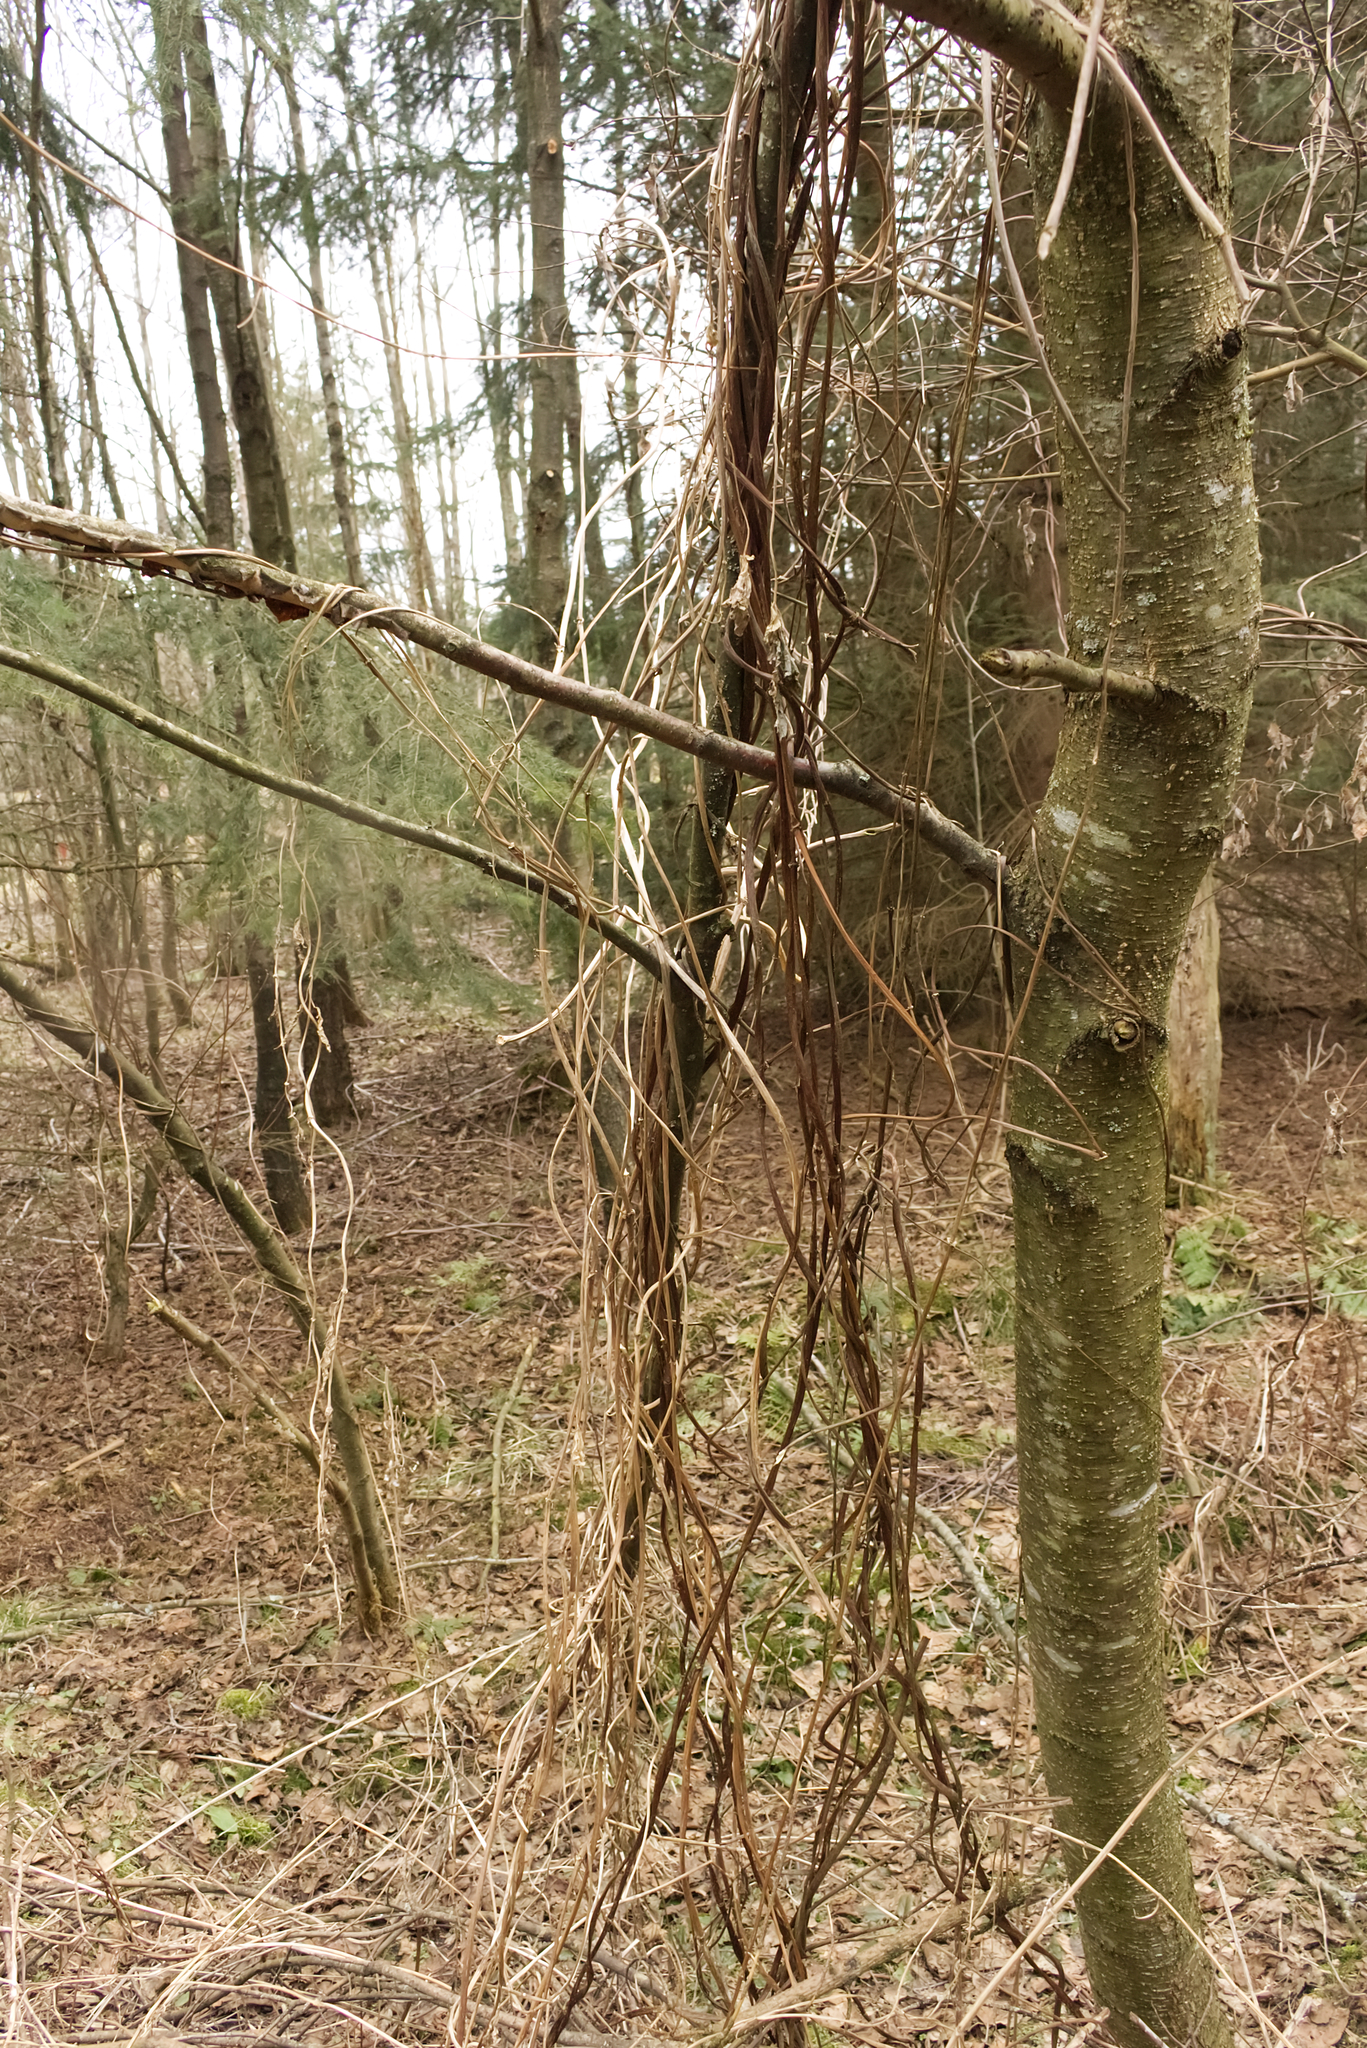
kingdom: Plantae
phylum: Tracheophyta
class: Magnoliopsida
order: Rosales
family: Cannabaceae
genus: Humulus
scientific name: Humulus lupulus
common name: Hop
